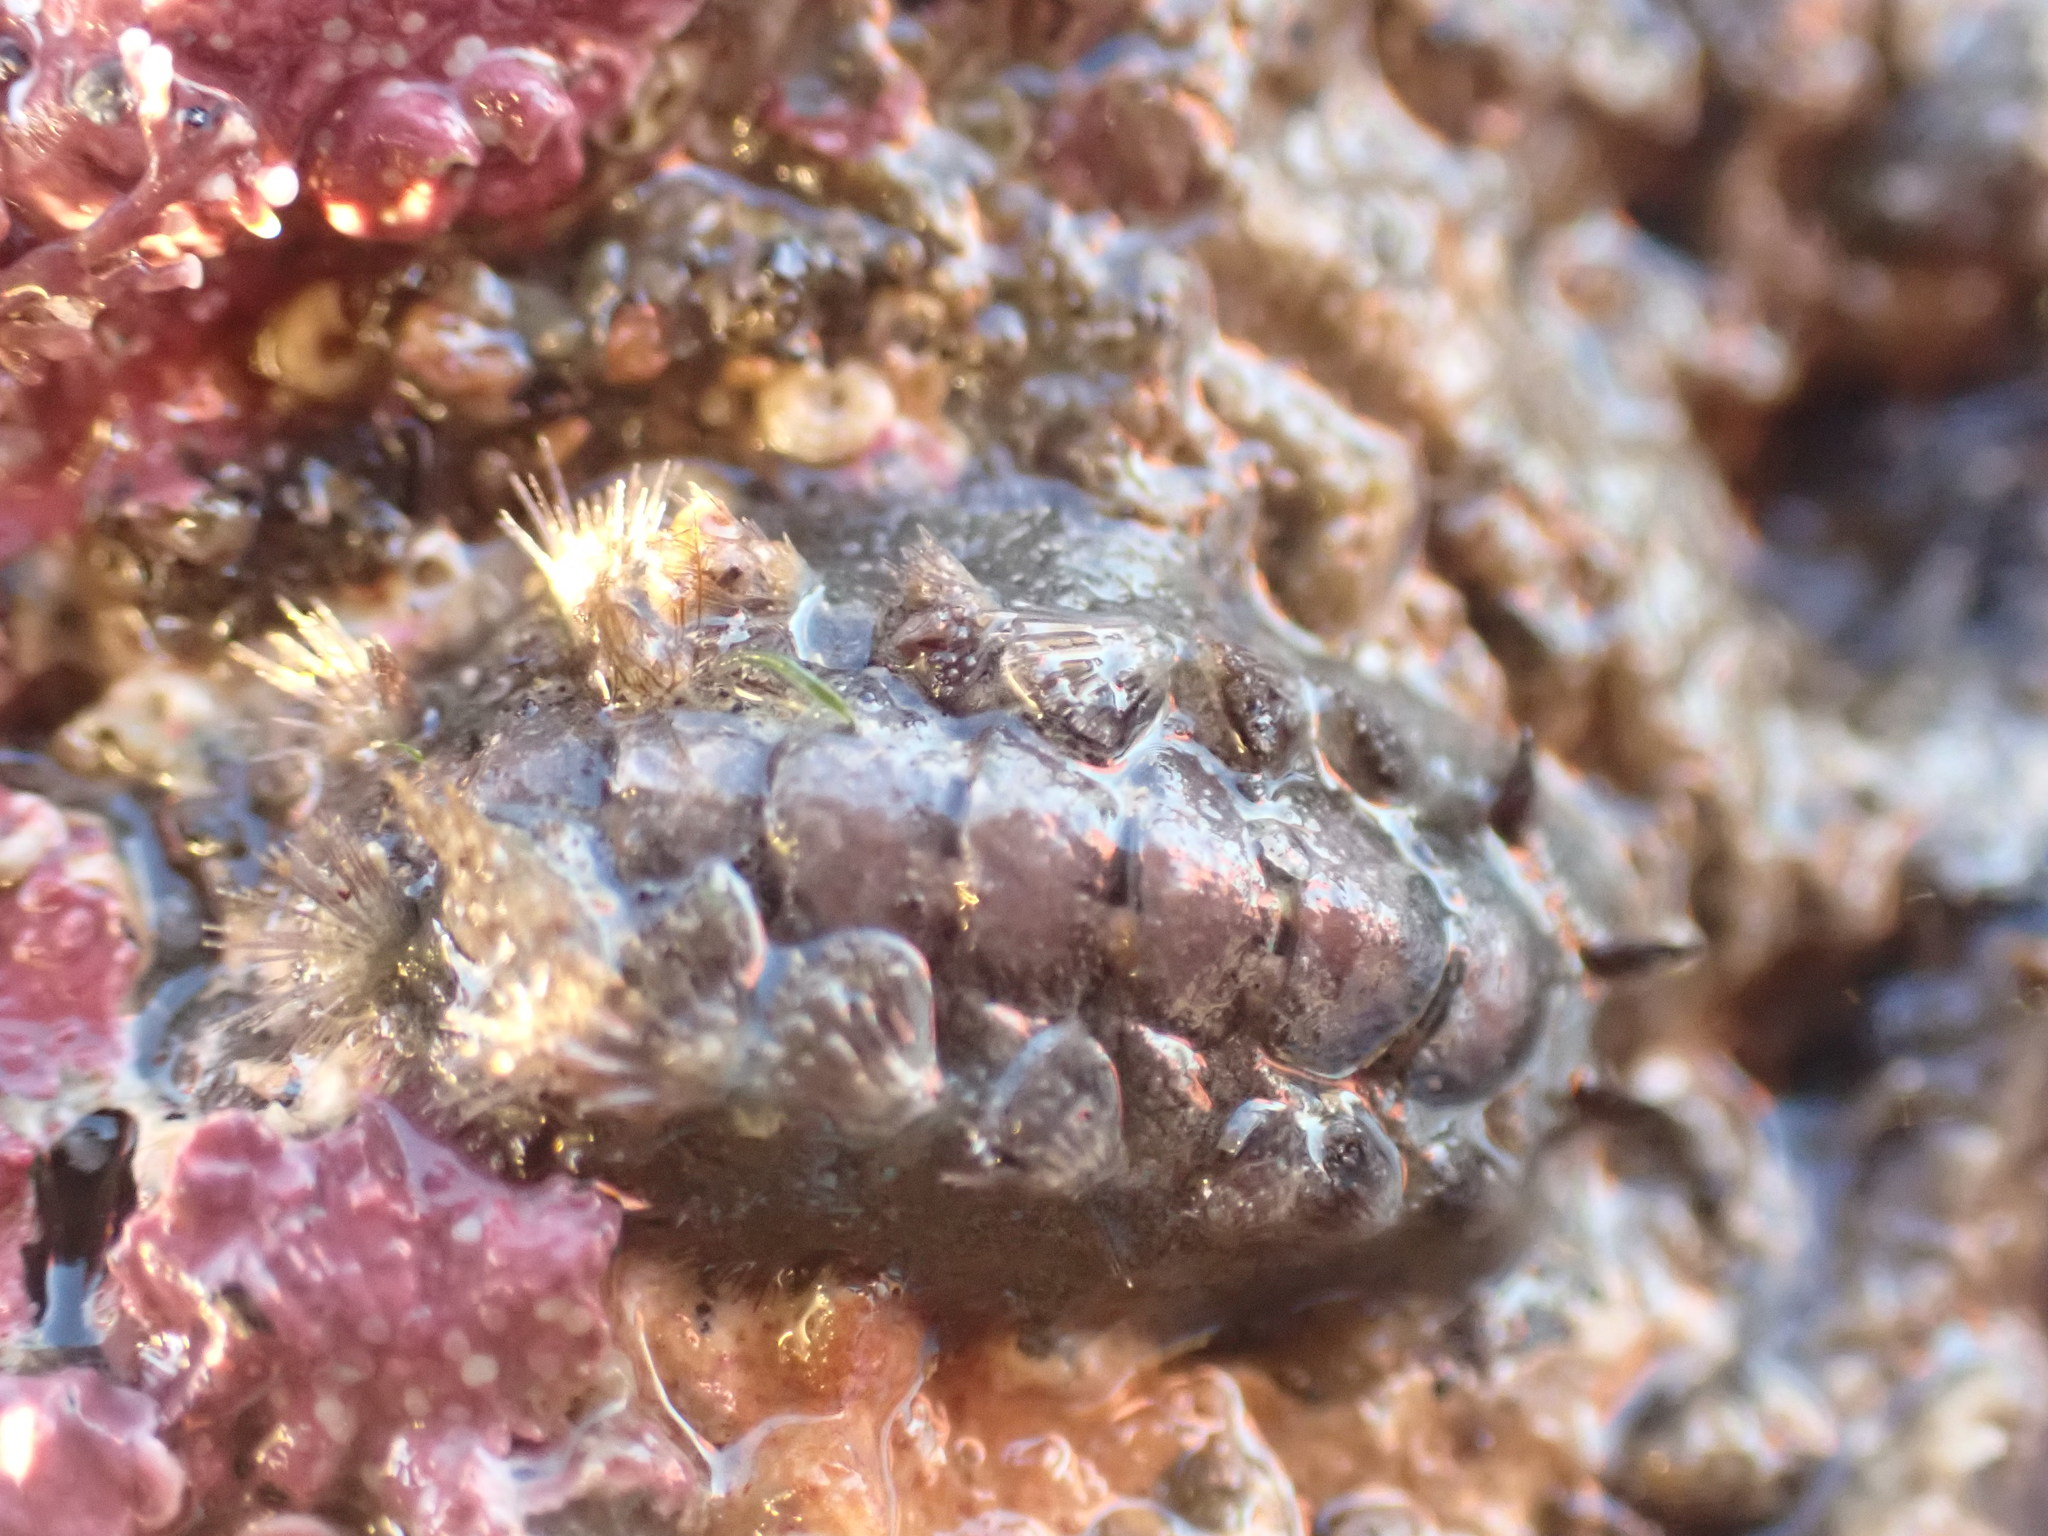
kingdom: Animalia
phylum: Mollusca
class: Polyplacophora
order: Chitonida
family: Acanthochitonidae
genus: Acanthochitona
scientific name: Acanthochitona zelandica
